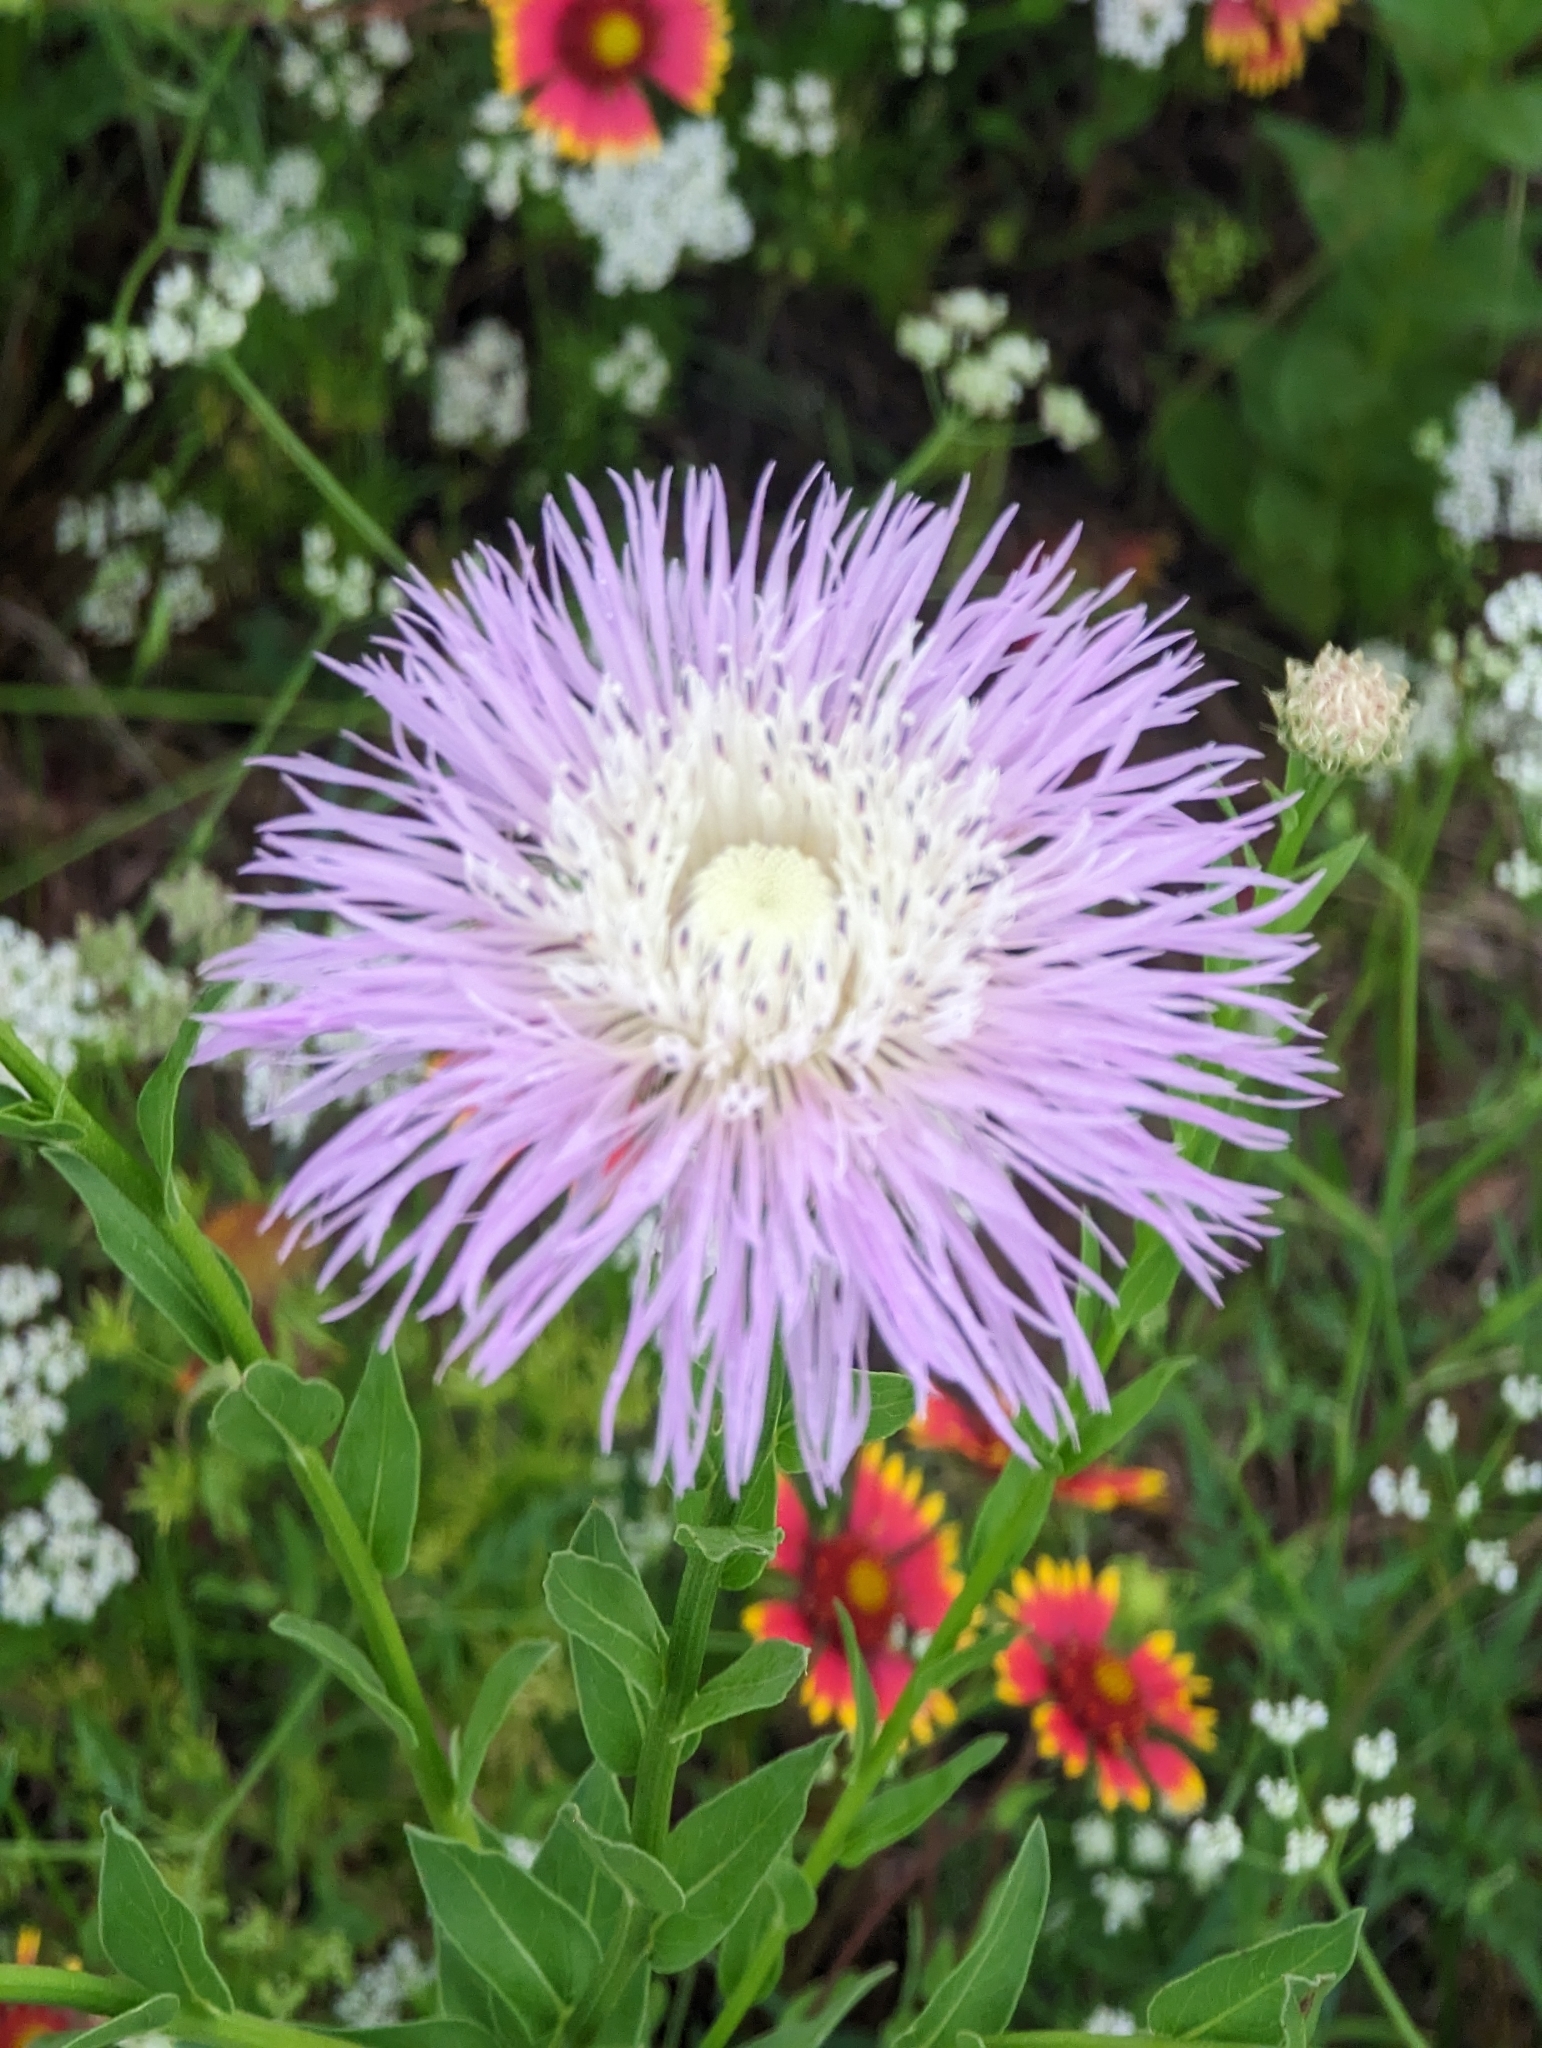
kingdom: Plantae
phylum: Tracheophyta
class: Magnoliopsida
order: Asterales
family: Asteraceae
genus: Plectocephalus
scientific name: Plectocephalus americanus
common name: American basket-flower
